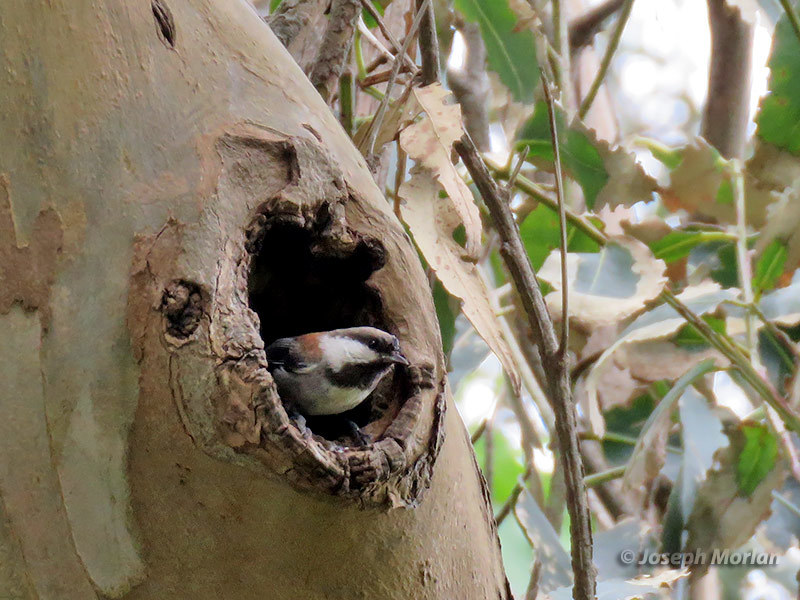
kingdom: Animalia
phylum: Chordata
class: Aves
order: Passeriformes
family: Paridae
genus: Poecile
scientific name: Poecile rufescens
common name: Chestnut-backed chickadee
